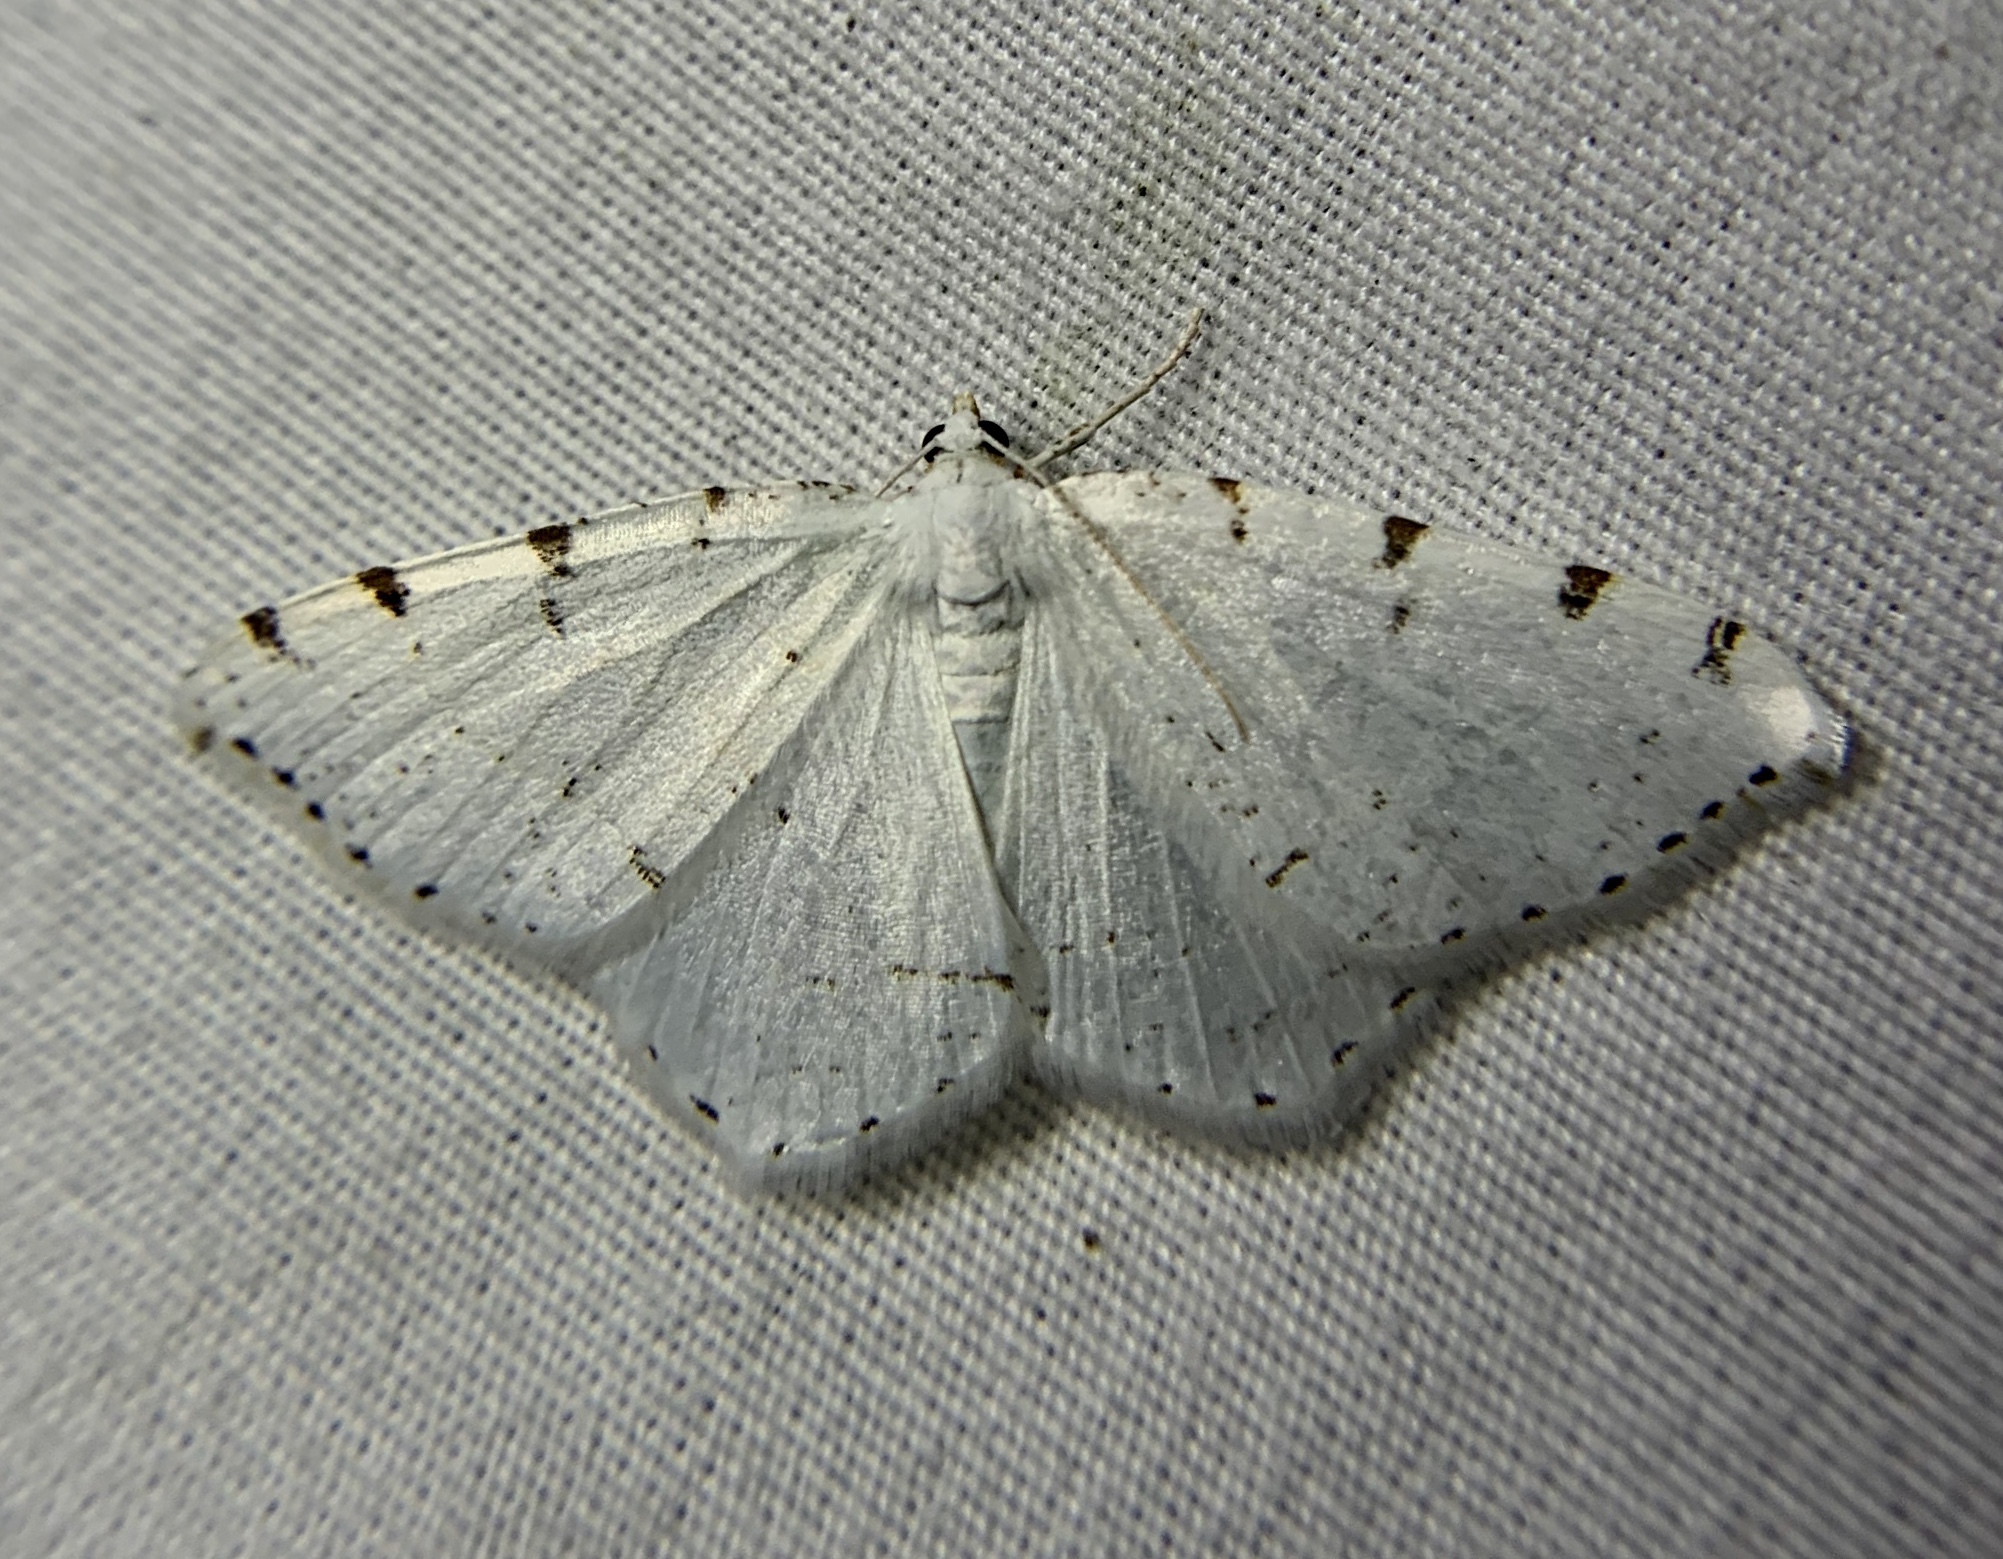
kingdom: Animalia
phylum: Arthropoda
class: Insecta
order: Lepidoptera
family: Geometridae
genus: Macaria
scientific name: Macaria pustularia
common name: Lesser maple spanworm moth
